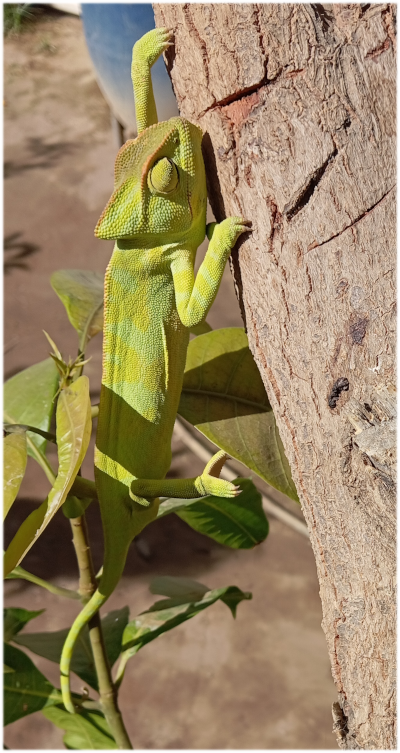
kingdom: Animalia
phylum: Chordata
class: Squamata
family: Chamaeleonidae
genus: Chamaeleo
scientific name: Chamaeleo africanus
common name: African chameleon
